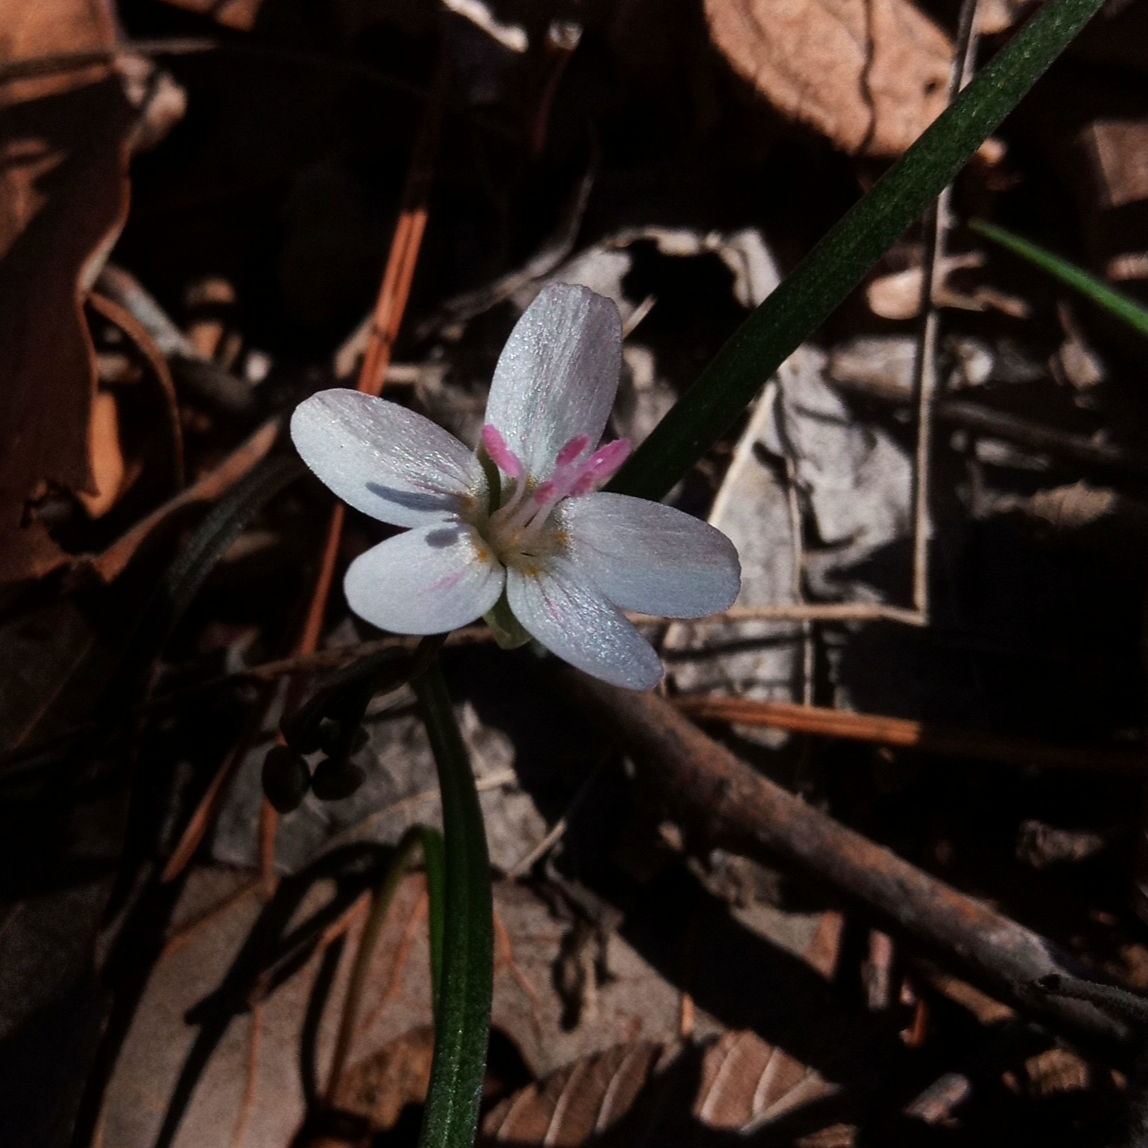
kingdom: Plantae
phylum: Tracheophyta
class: Magnoliopsida
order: Caryophyllales
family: Montiaceae
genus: Claytonia
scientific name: Claytonia virginica
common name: Virginia springbeauty
